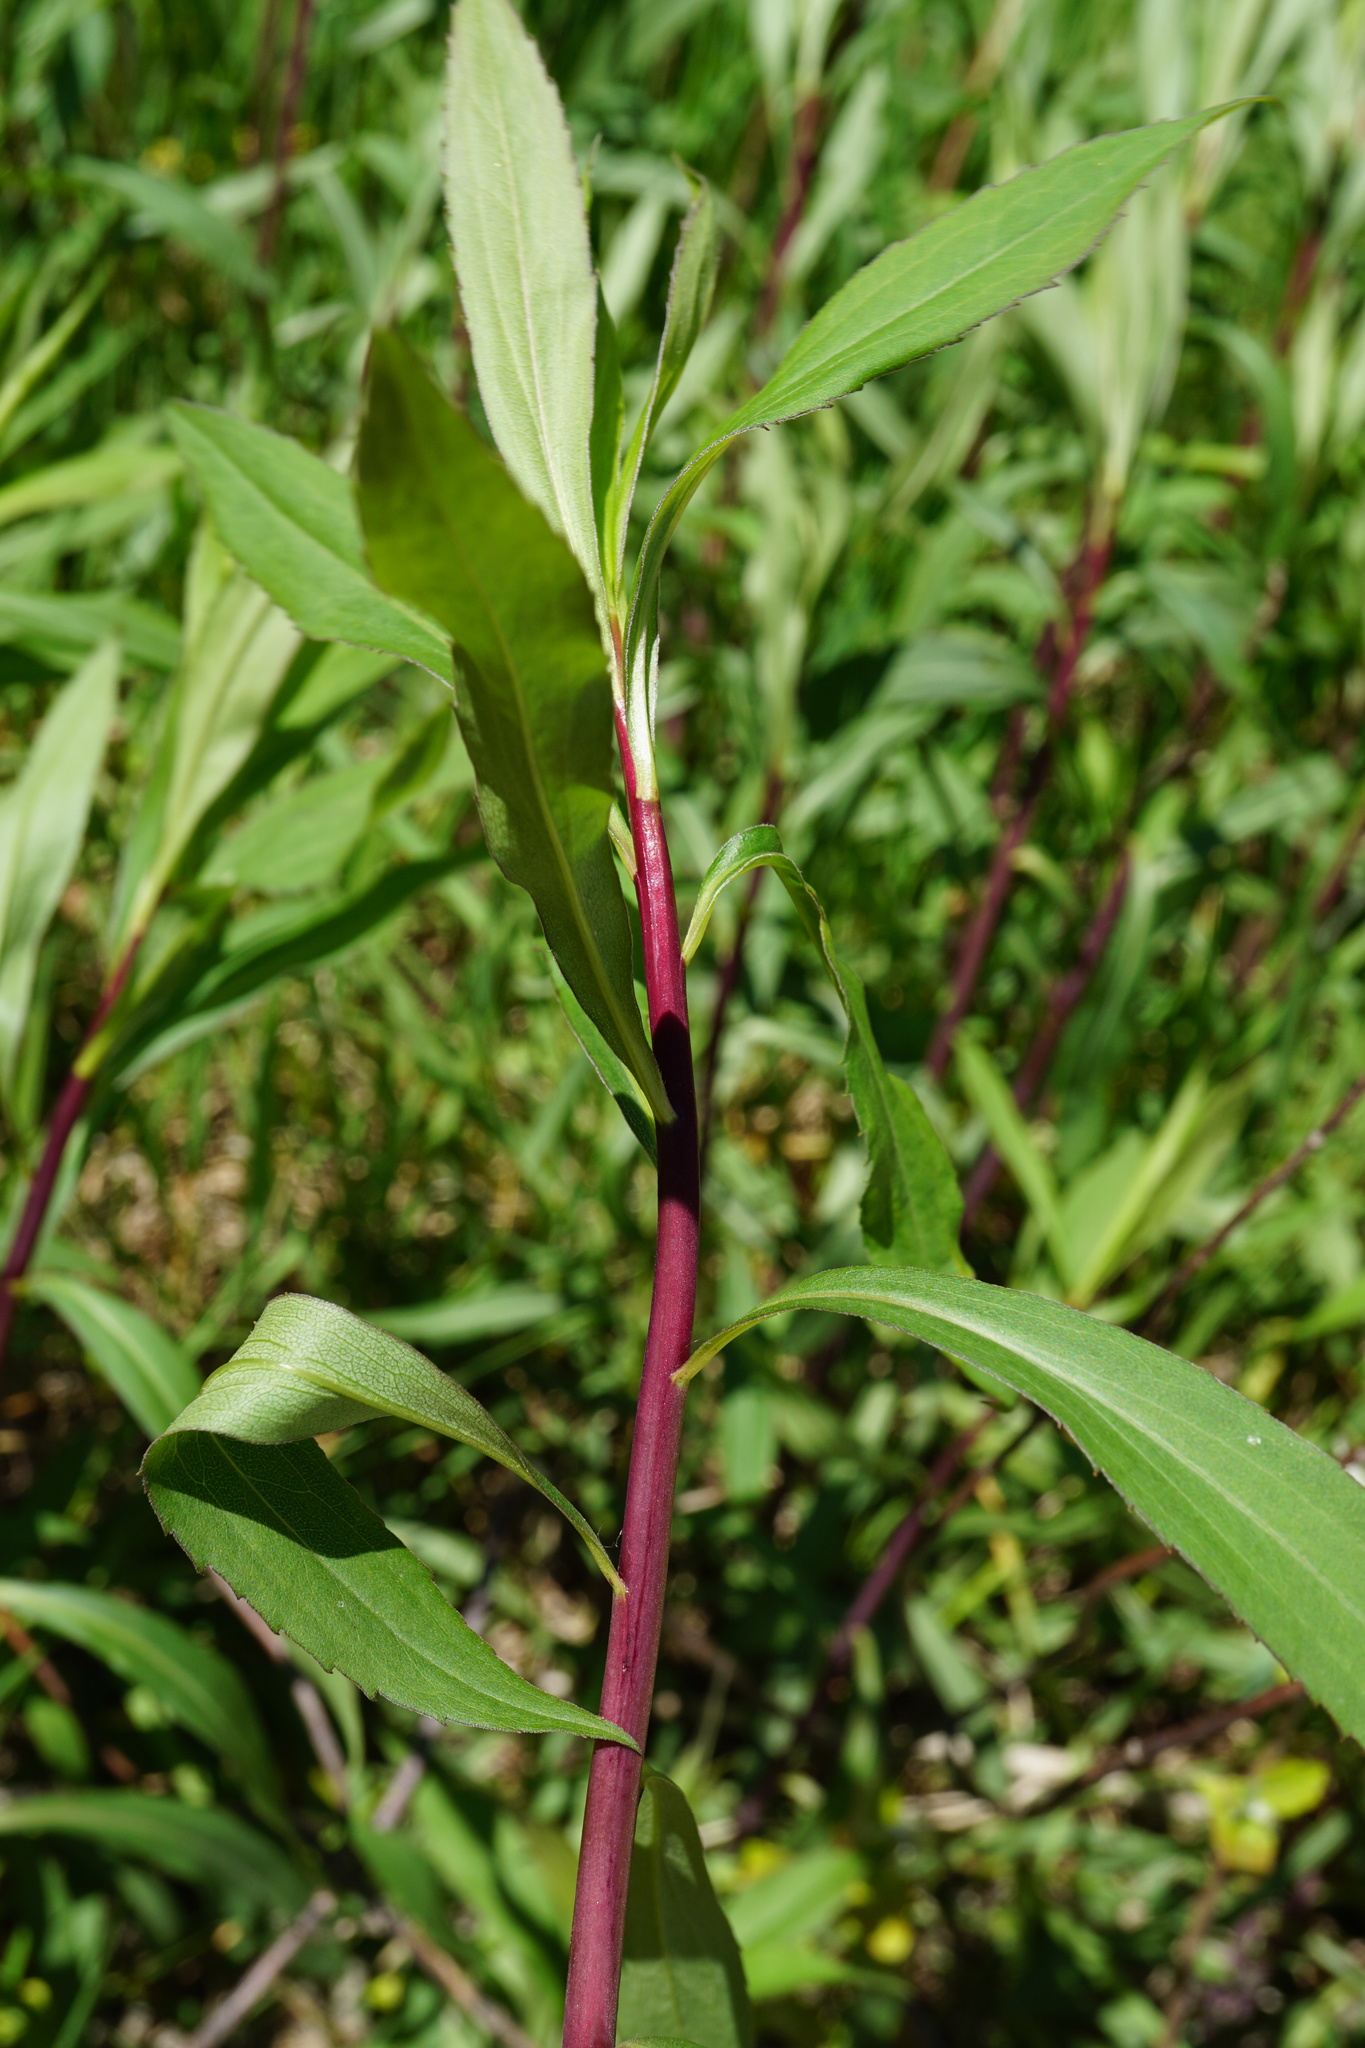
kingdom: Plantae
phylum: Tracheophyta
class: Magnoliopsida
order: Asterales
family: Asteraceae
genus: Solidago
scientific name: Solidago gigantea
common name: Giant goldenrod
